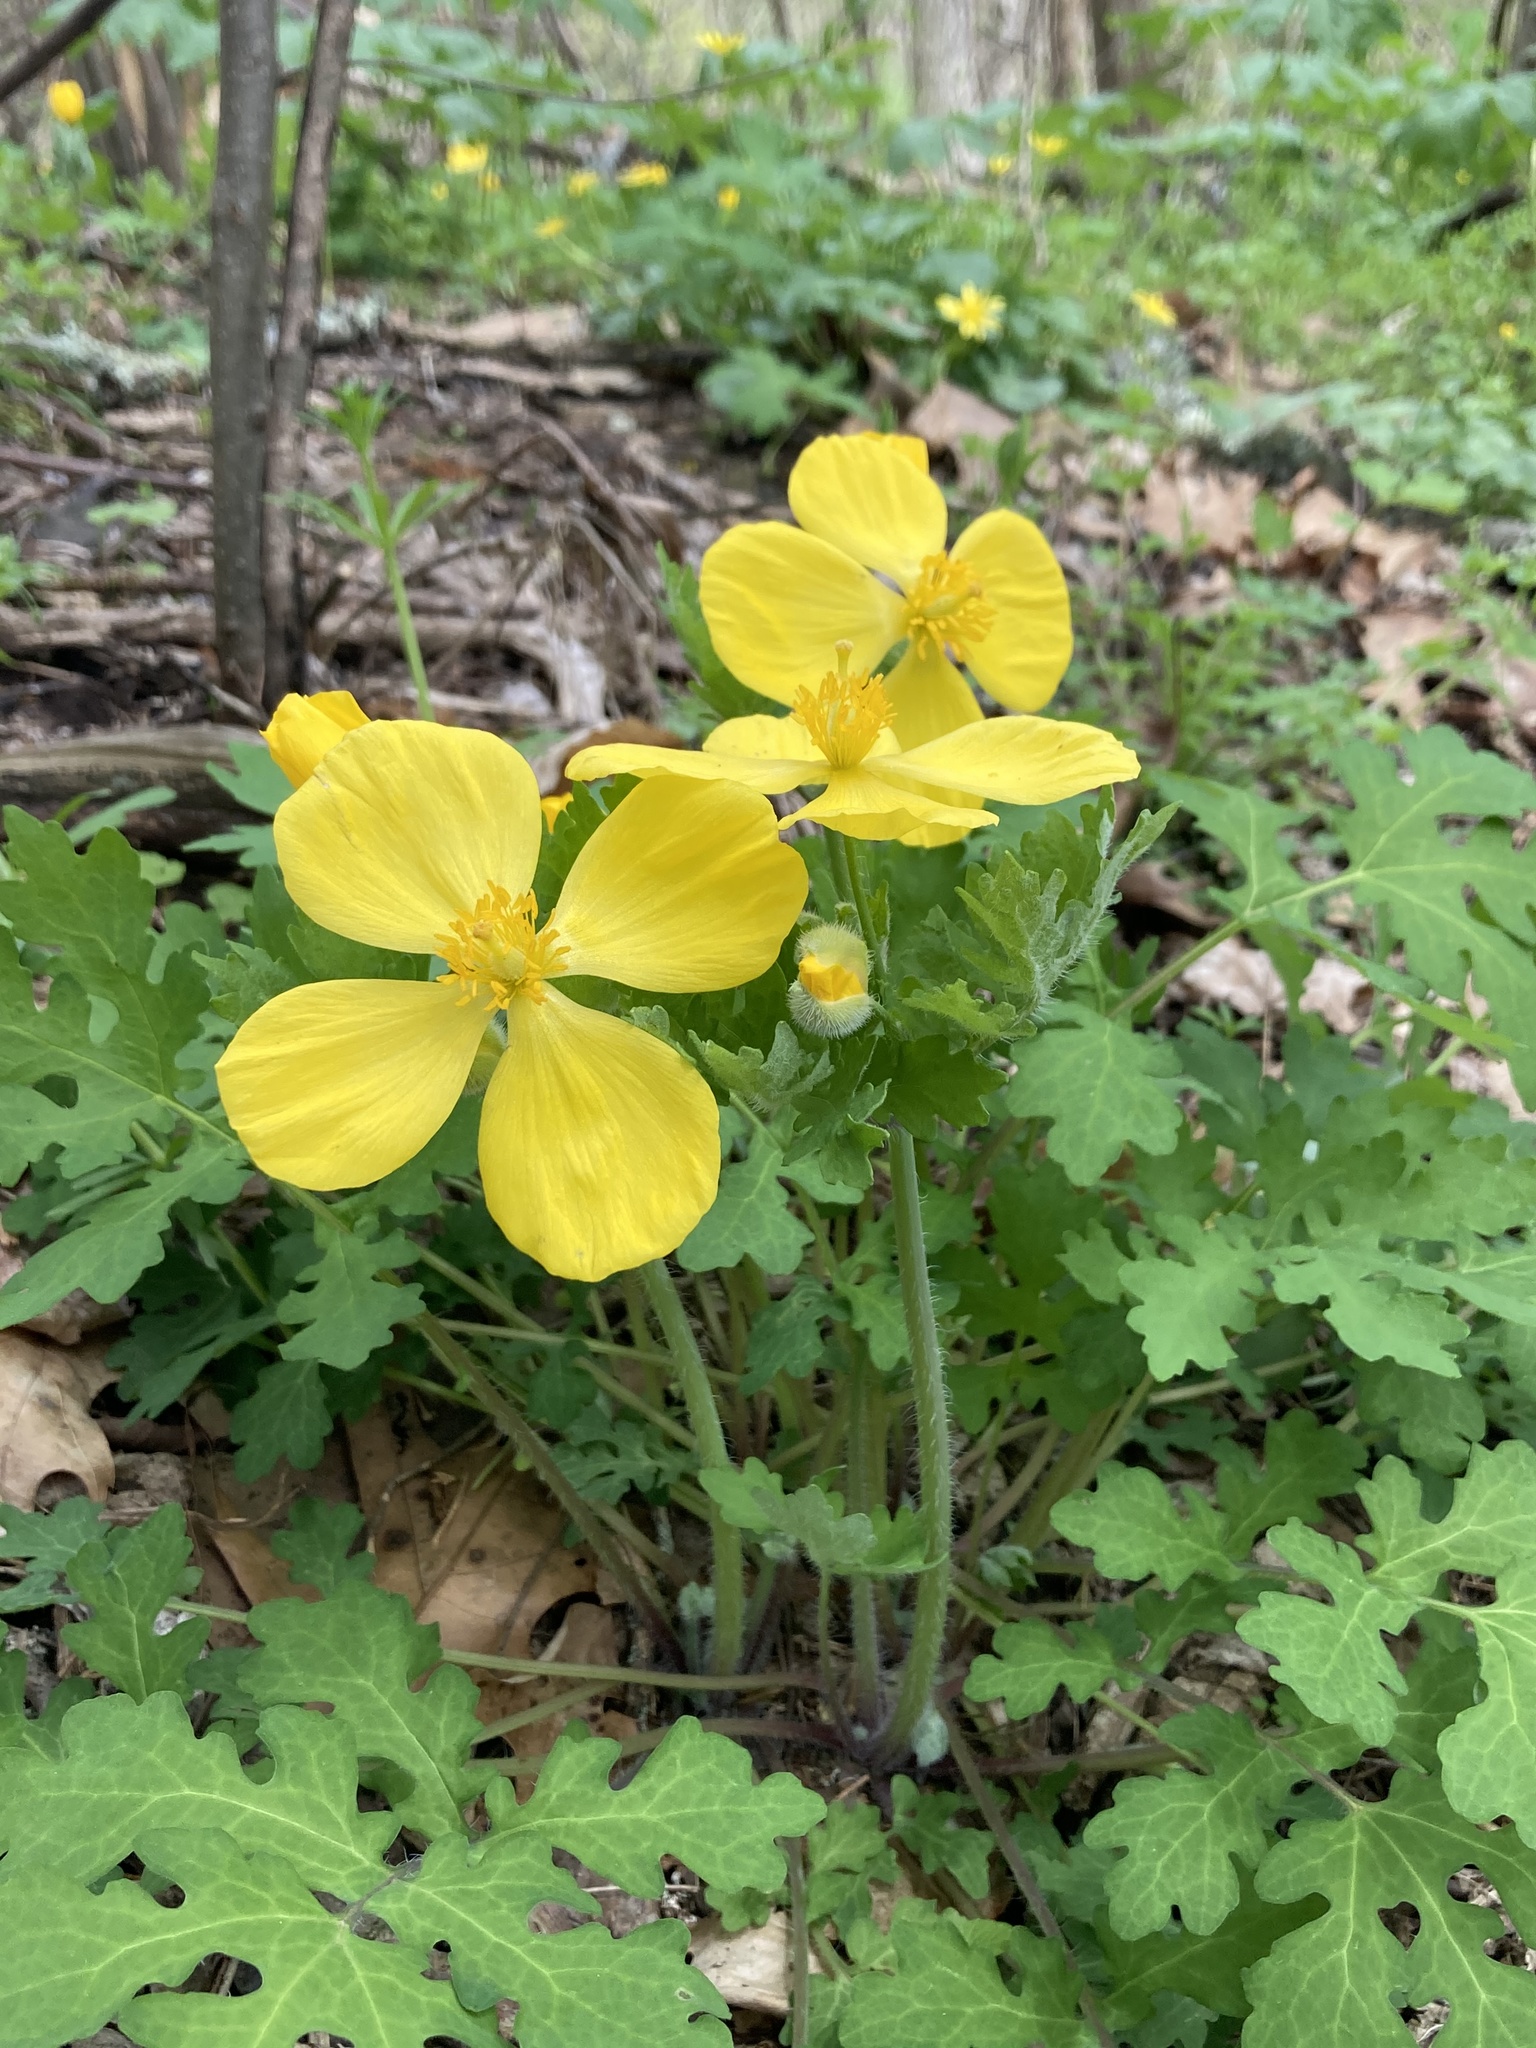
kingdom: Plantae
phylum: Tracheophyta
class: Magnoliopsida
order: Ranunculales
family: Papaveraceae
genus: Stylophorum
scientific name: Stylophorum diphyllum
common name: Celandine poppy
